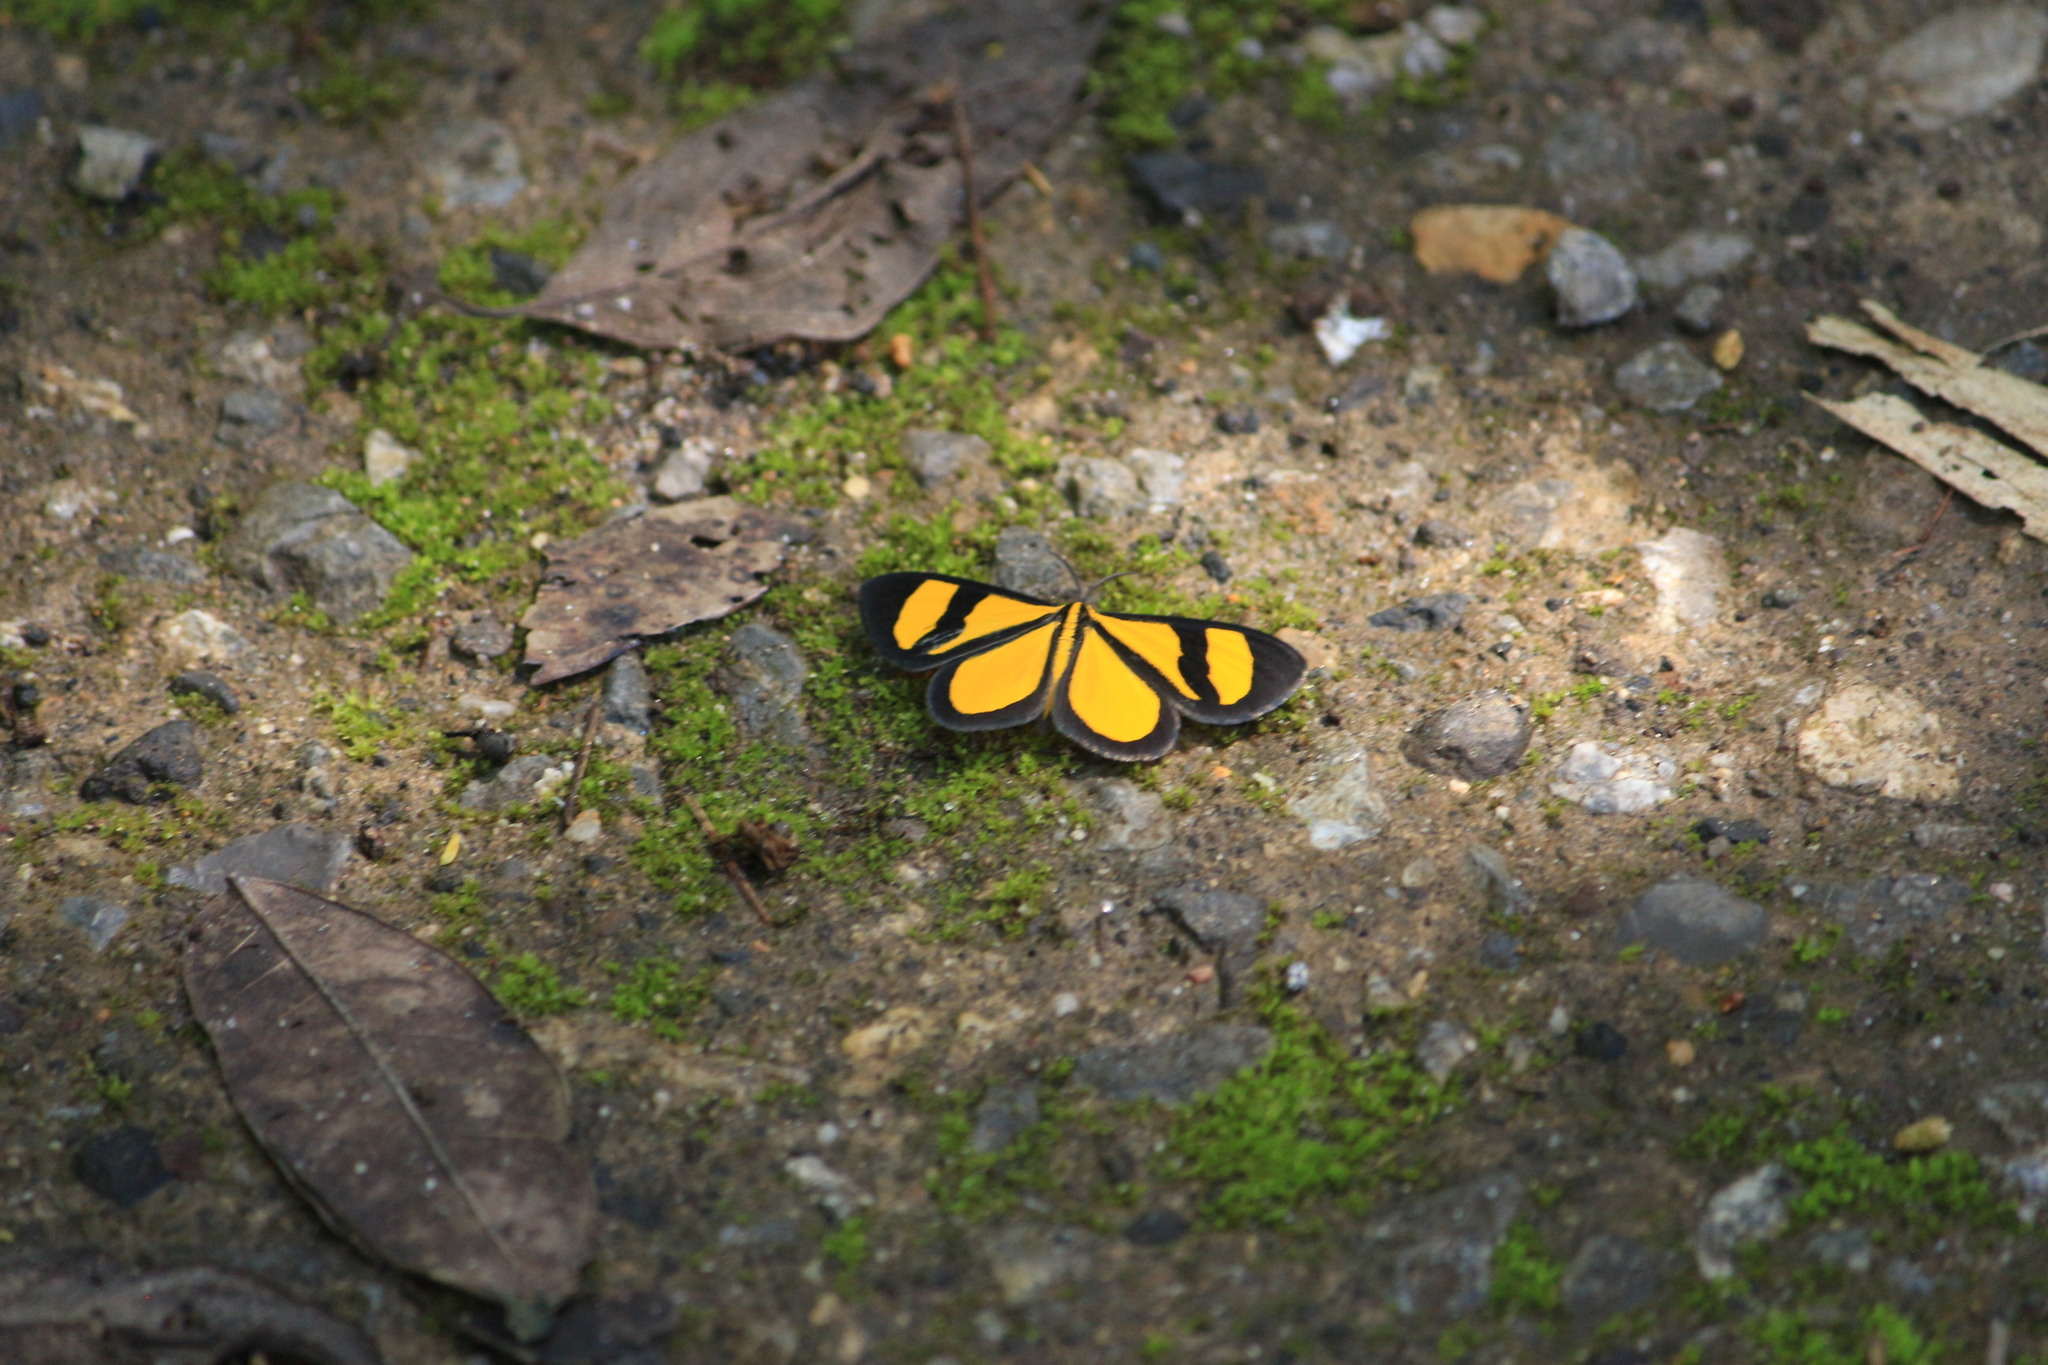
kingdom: Animalia
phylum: Arthropoda
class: Insecta
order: Lepidoptera
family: Geometridae
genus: Smicropus
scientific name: Smicropus laeta
